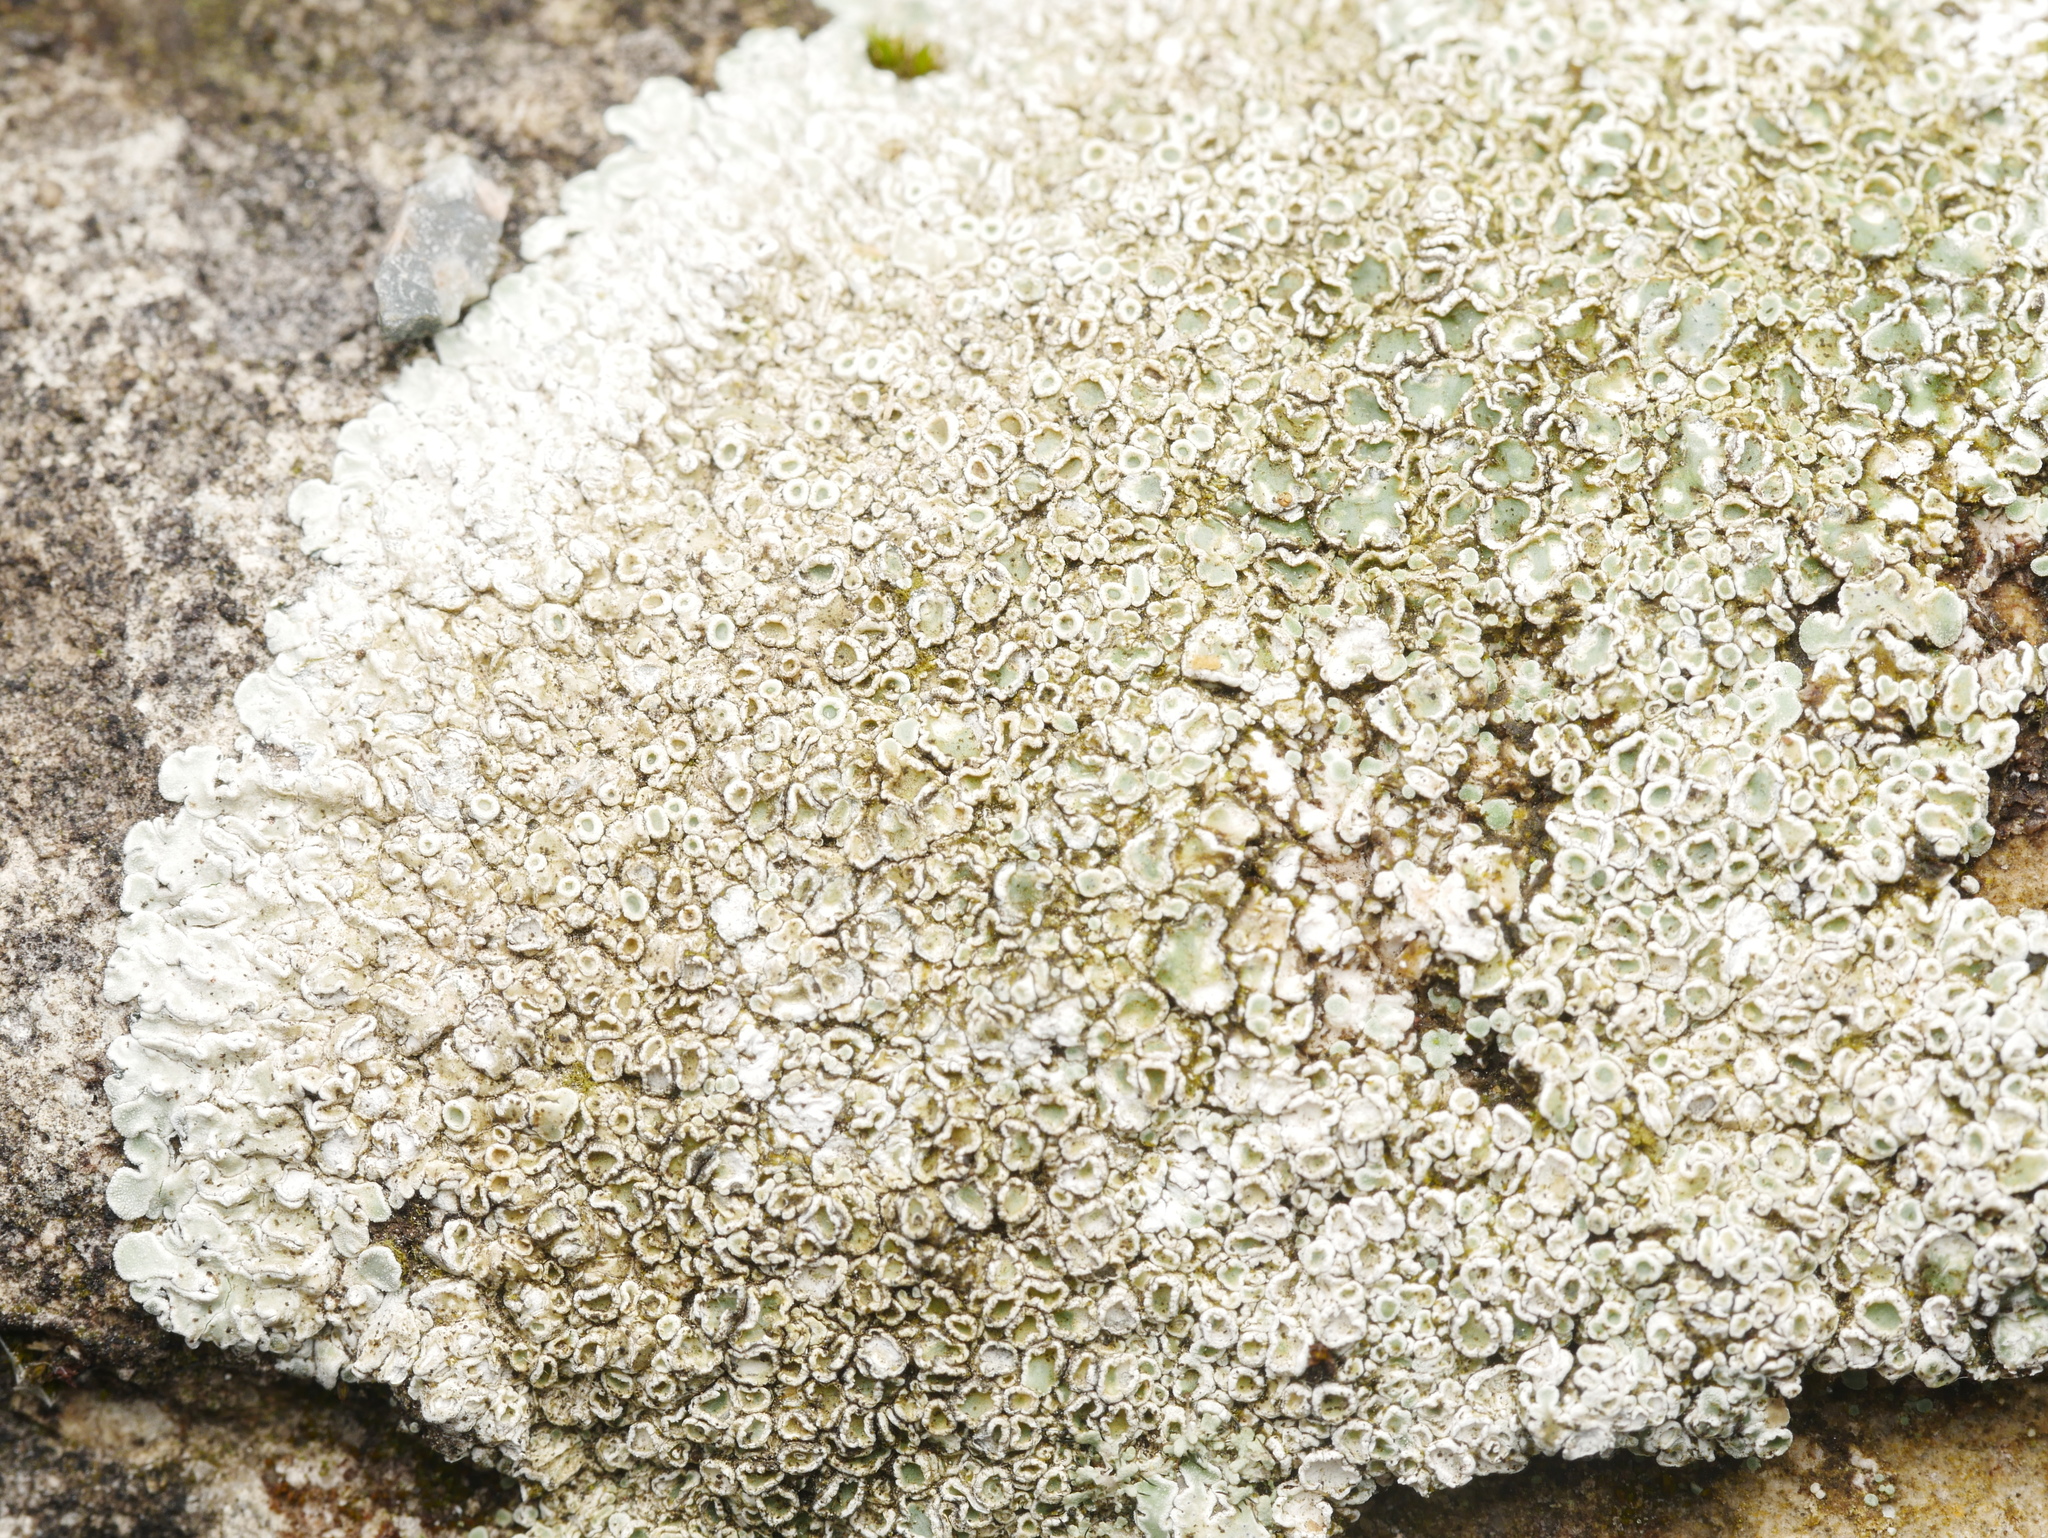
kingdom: Fungi
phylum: Ascomycota
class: Lecanoromycetes
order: Lecanorales
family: Lecanoraceae
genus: Protoparmeliopsis
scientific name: Protoparmeliopsis muralis
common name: Stonewall rim lichen
